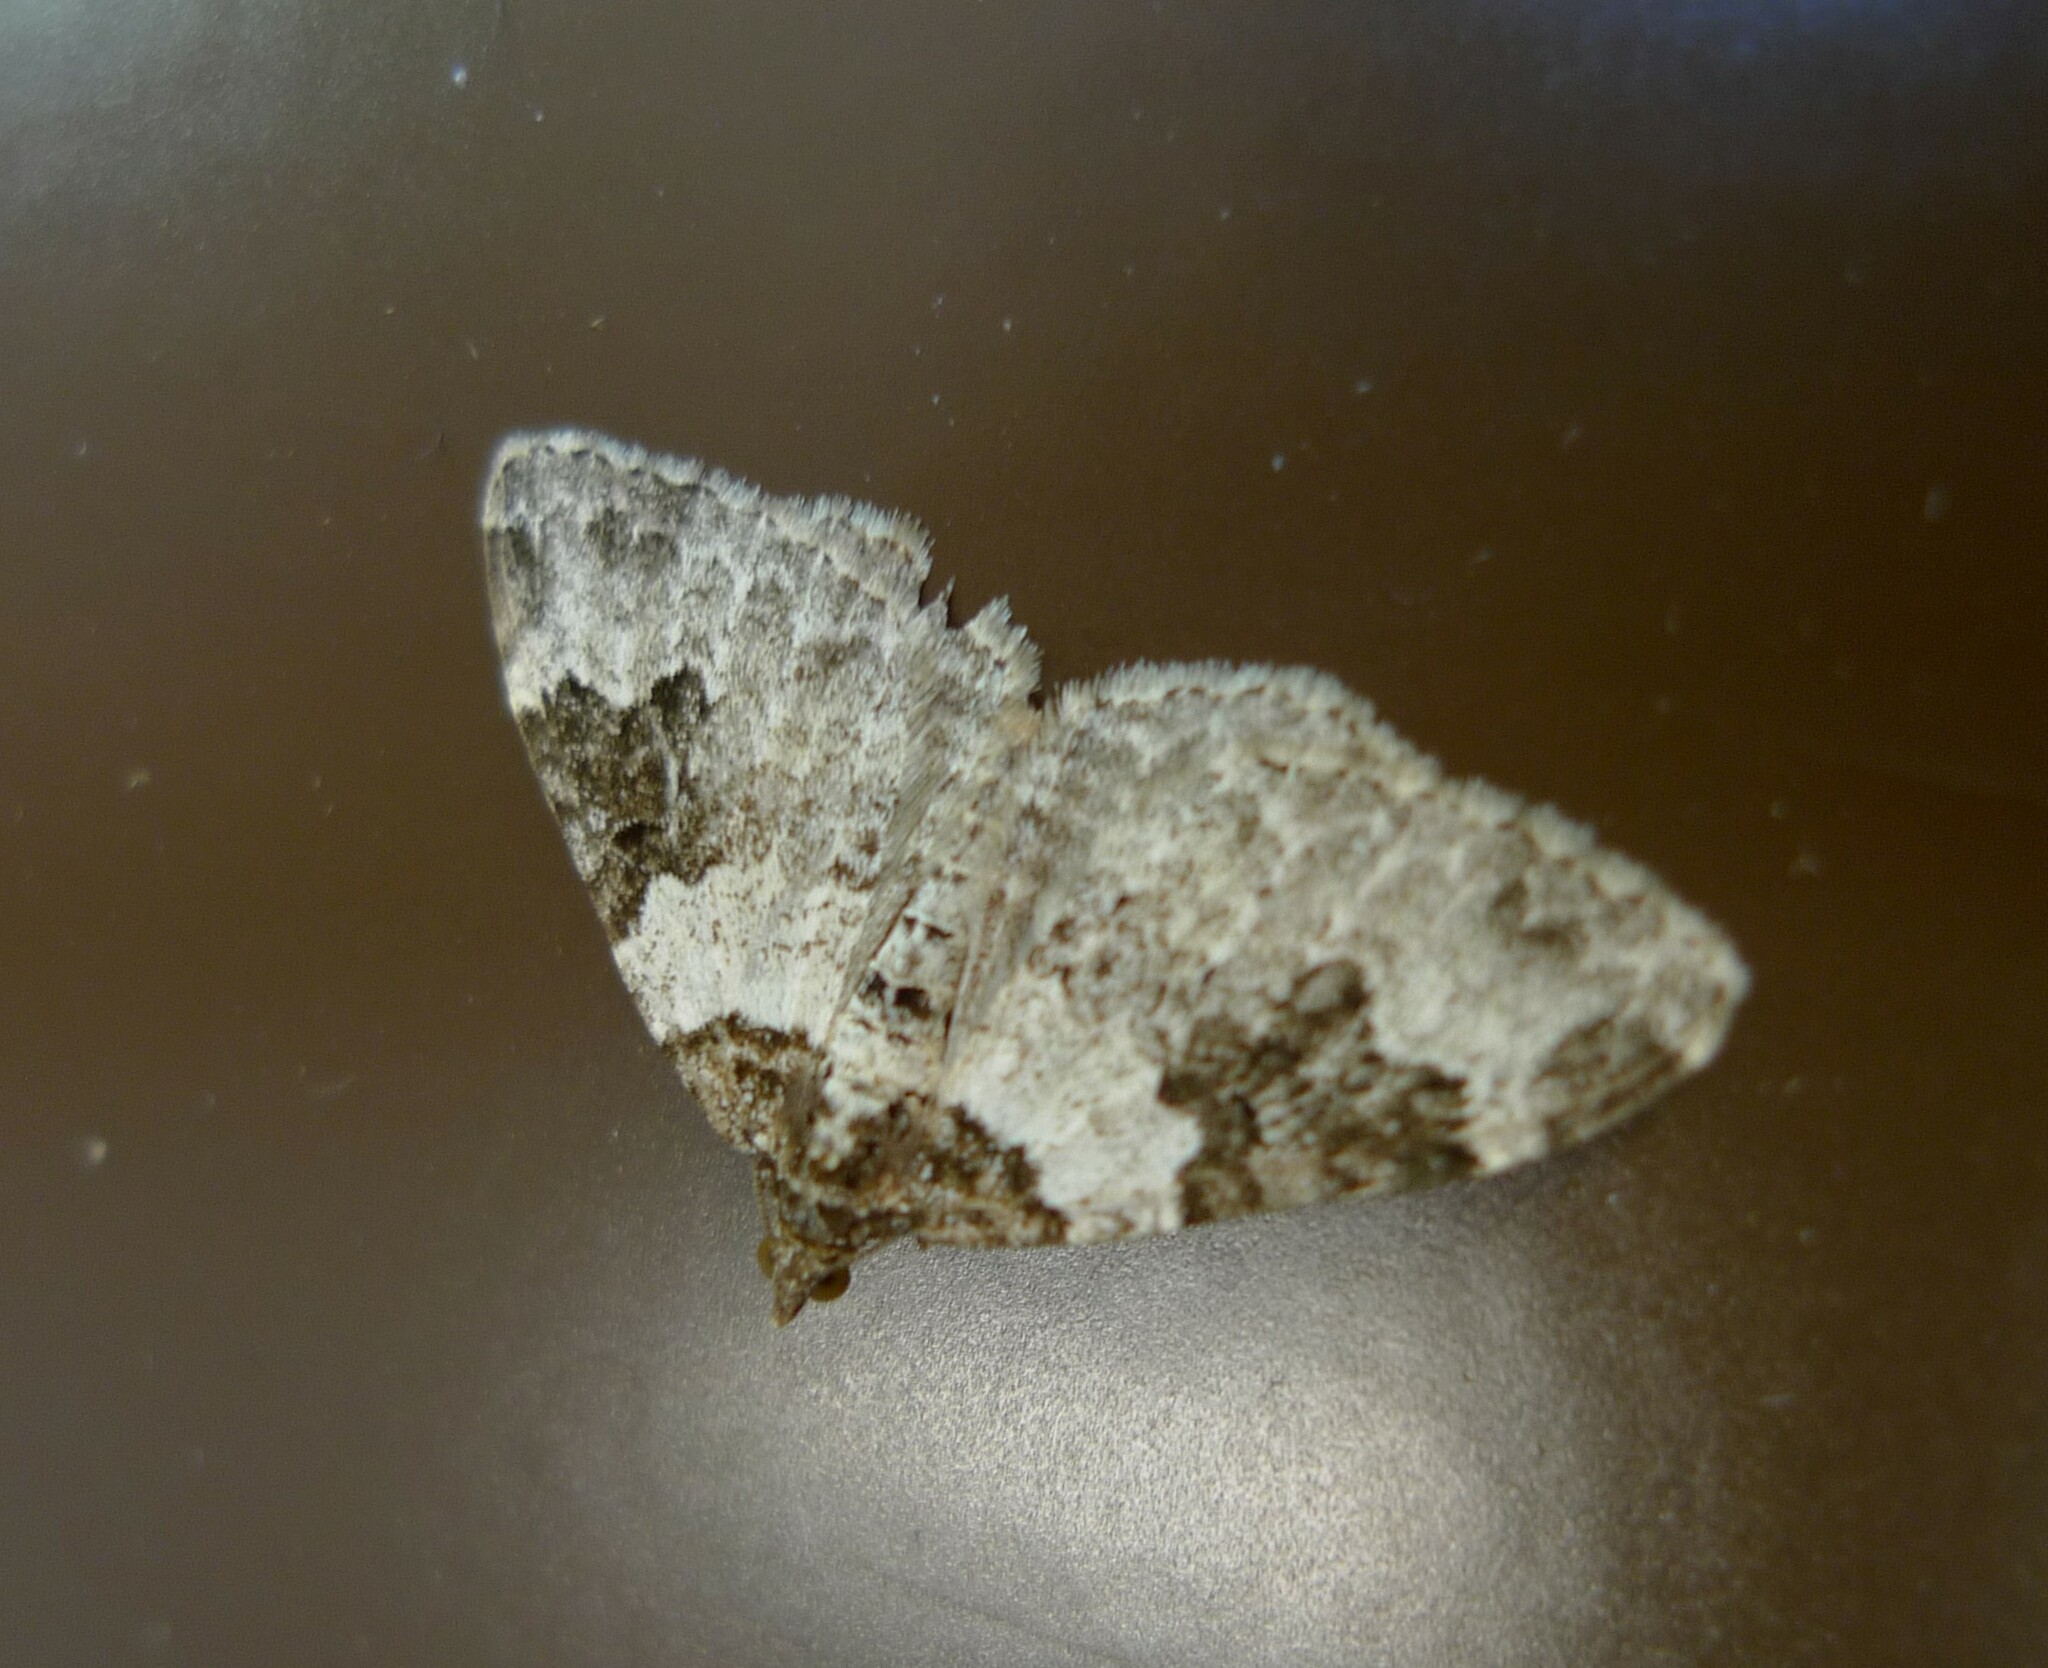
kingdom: Animalia
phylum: Arthropoda
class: Insecta
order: Lepidoptera
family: Geometridae
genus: Xanthorhoe
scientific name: Xanthorhoe fluctuata
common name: Garden carpet
